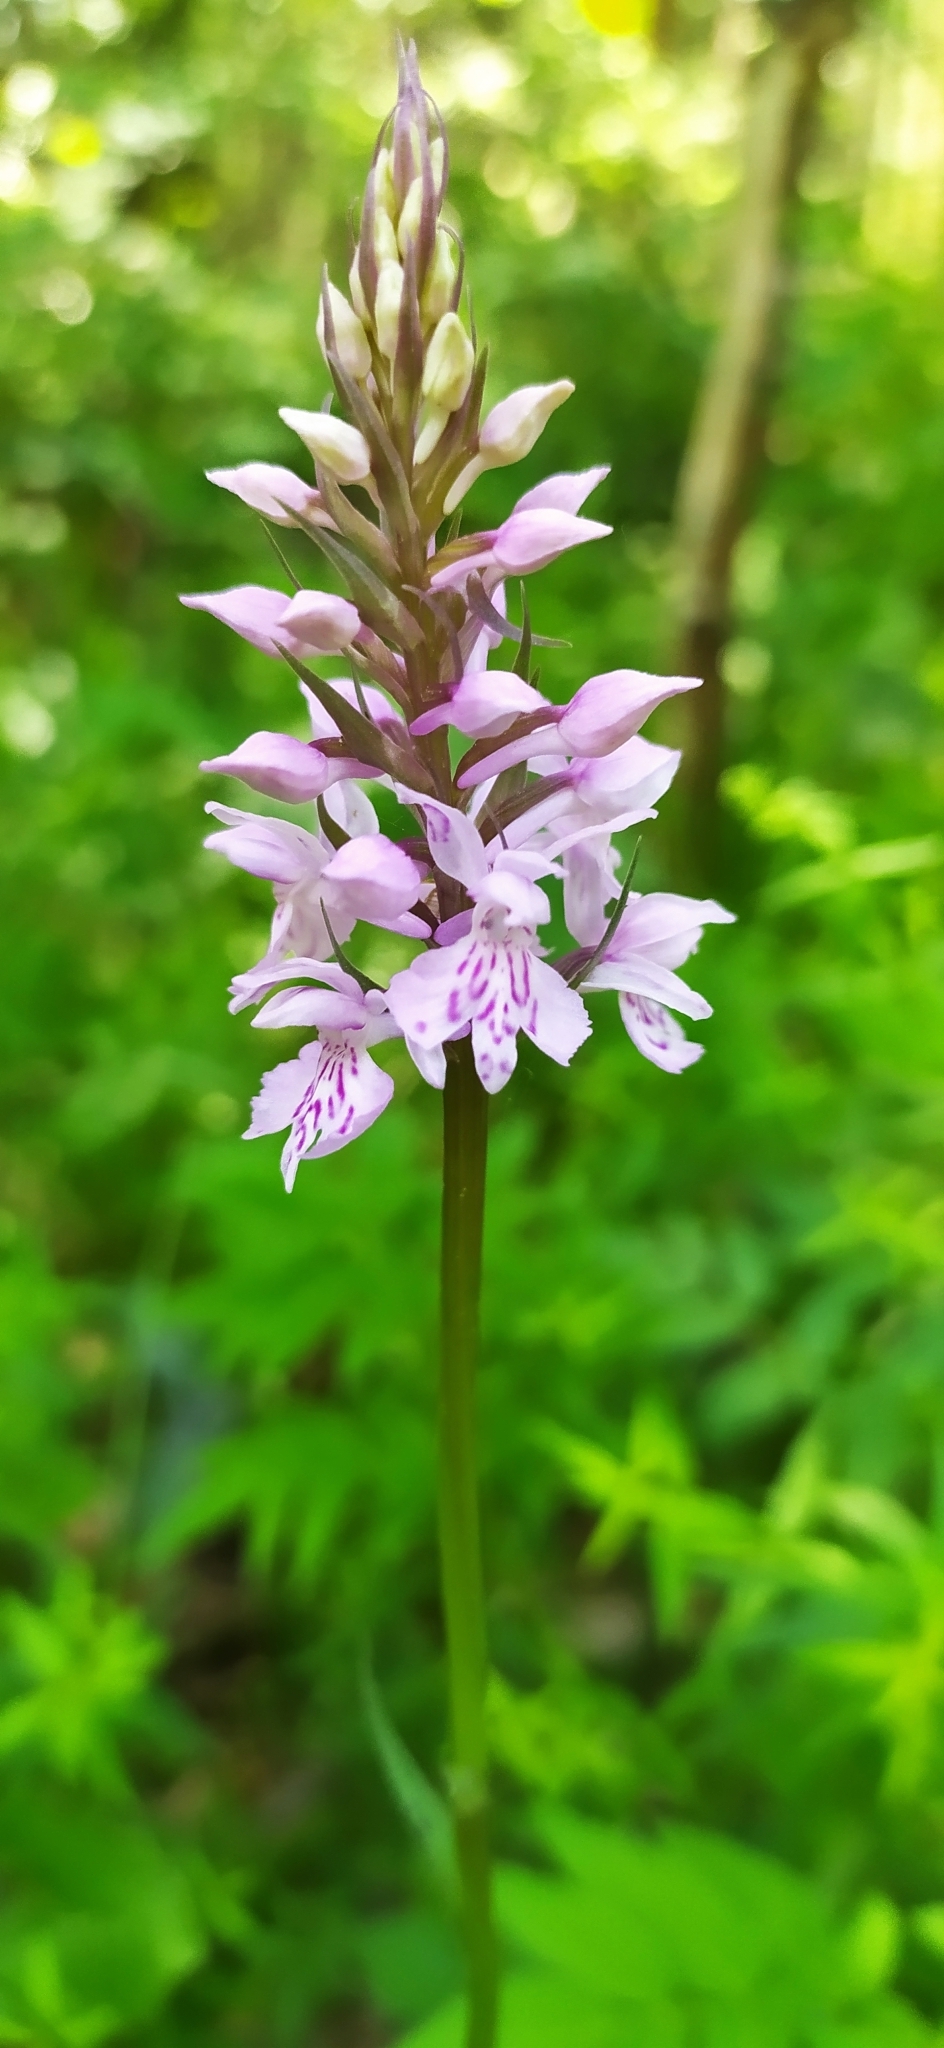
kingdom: Plantae
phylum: Tracheophyta
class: Liliopsida
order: Asparagales
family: Orchidaceae
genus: Dactylorhiza
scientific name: Dactylorhiza maculata
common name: Heath spotted-orchid
